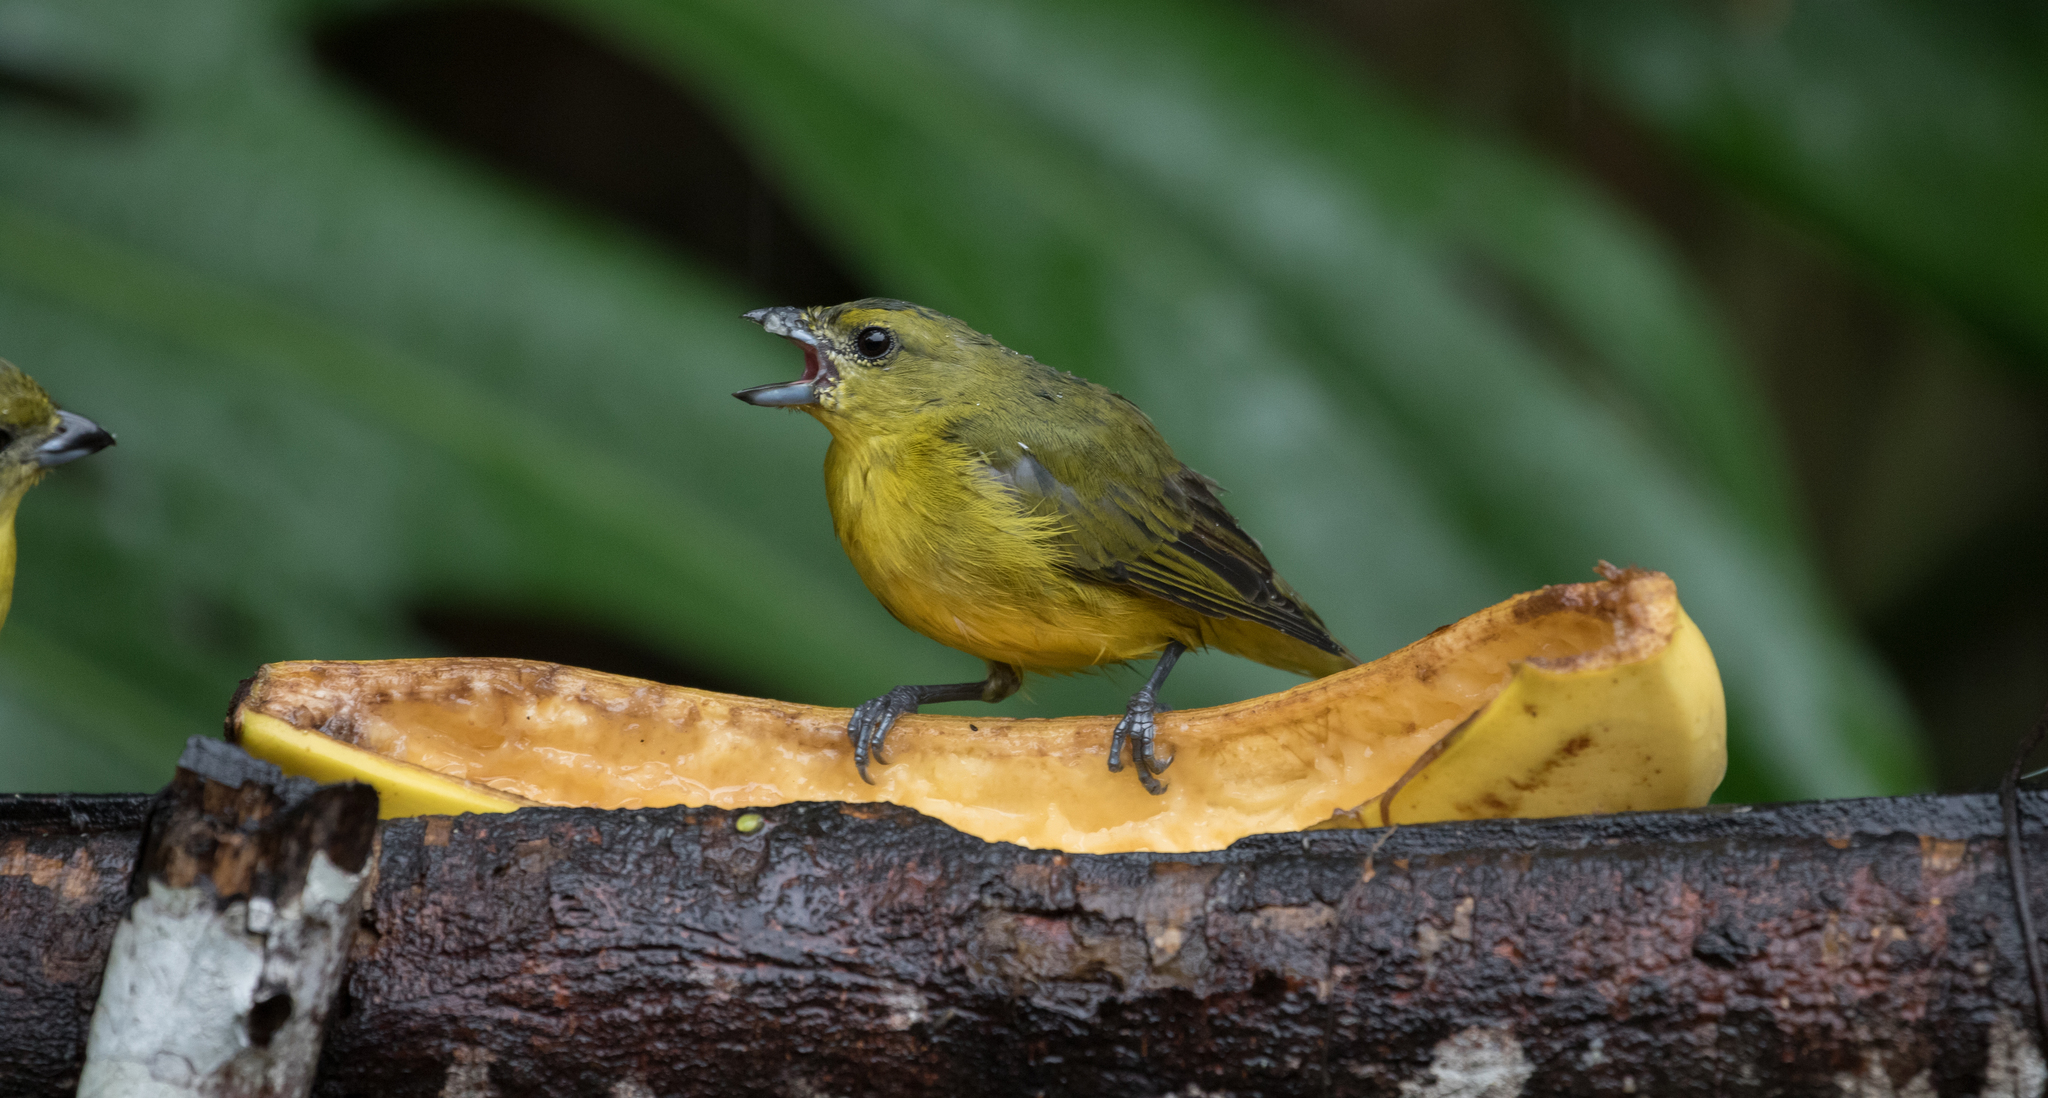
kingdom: Animalia
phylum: Chordata
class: Aves
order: Passeriformes
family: Fringillidae
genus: Euphonia
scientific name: Euphonia laniirostris
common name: Thick-billed euphonia
